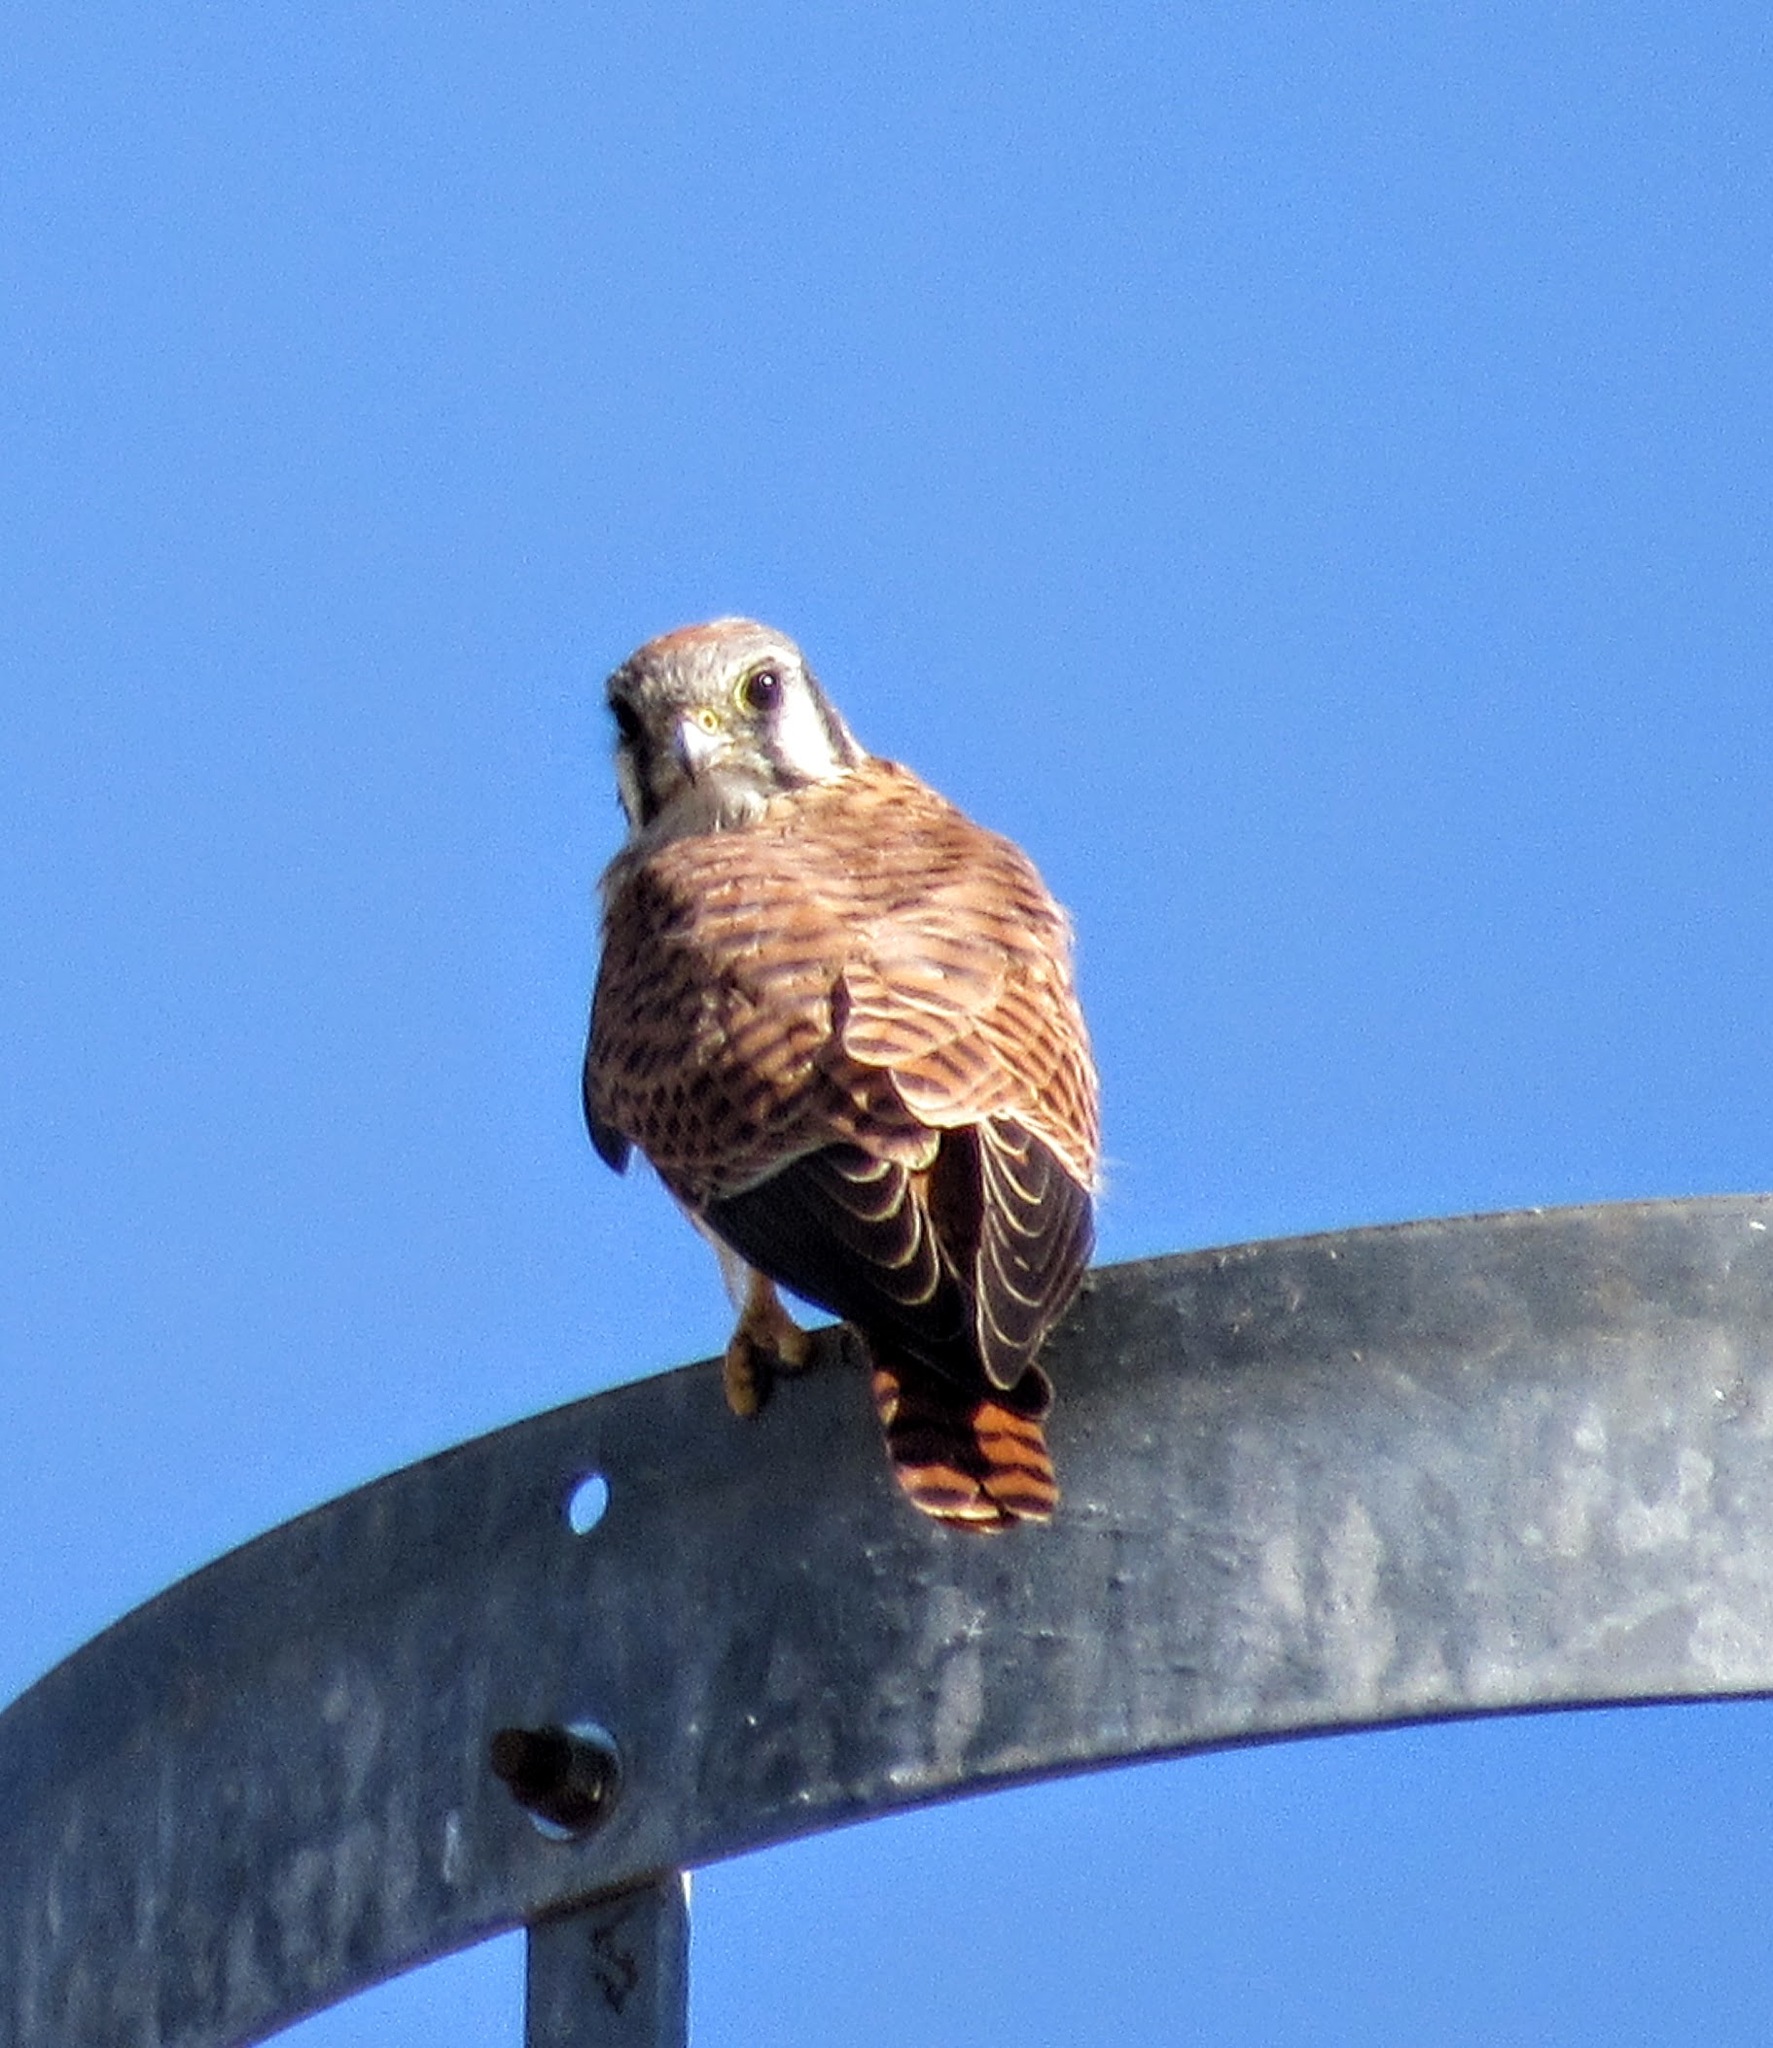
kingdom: Animalia
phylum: Chordata
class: Aves
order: Falconiformes
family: Falconidae
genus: Falco
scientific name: Falco sparverius
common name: American kestrel
